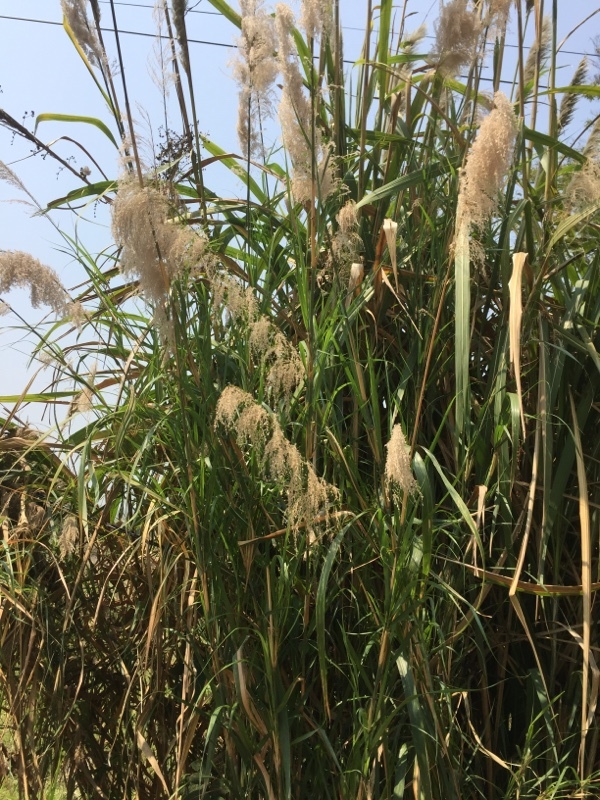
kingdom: Plantae
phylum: Tracheophyta
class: Liliopsida
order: Poales
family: Poaceae
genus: Phragmites
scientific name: Phragmites australis
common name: Common reed
